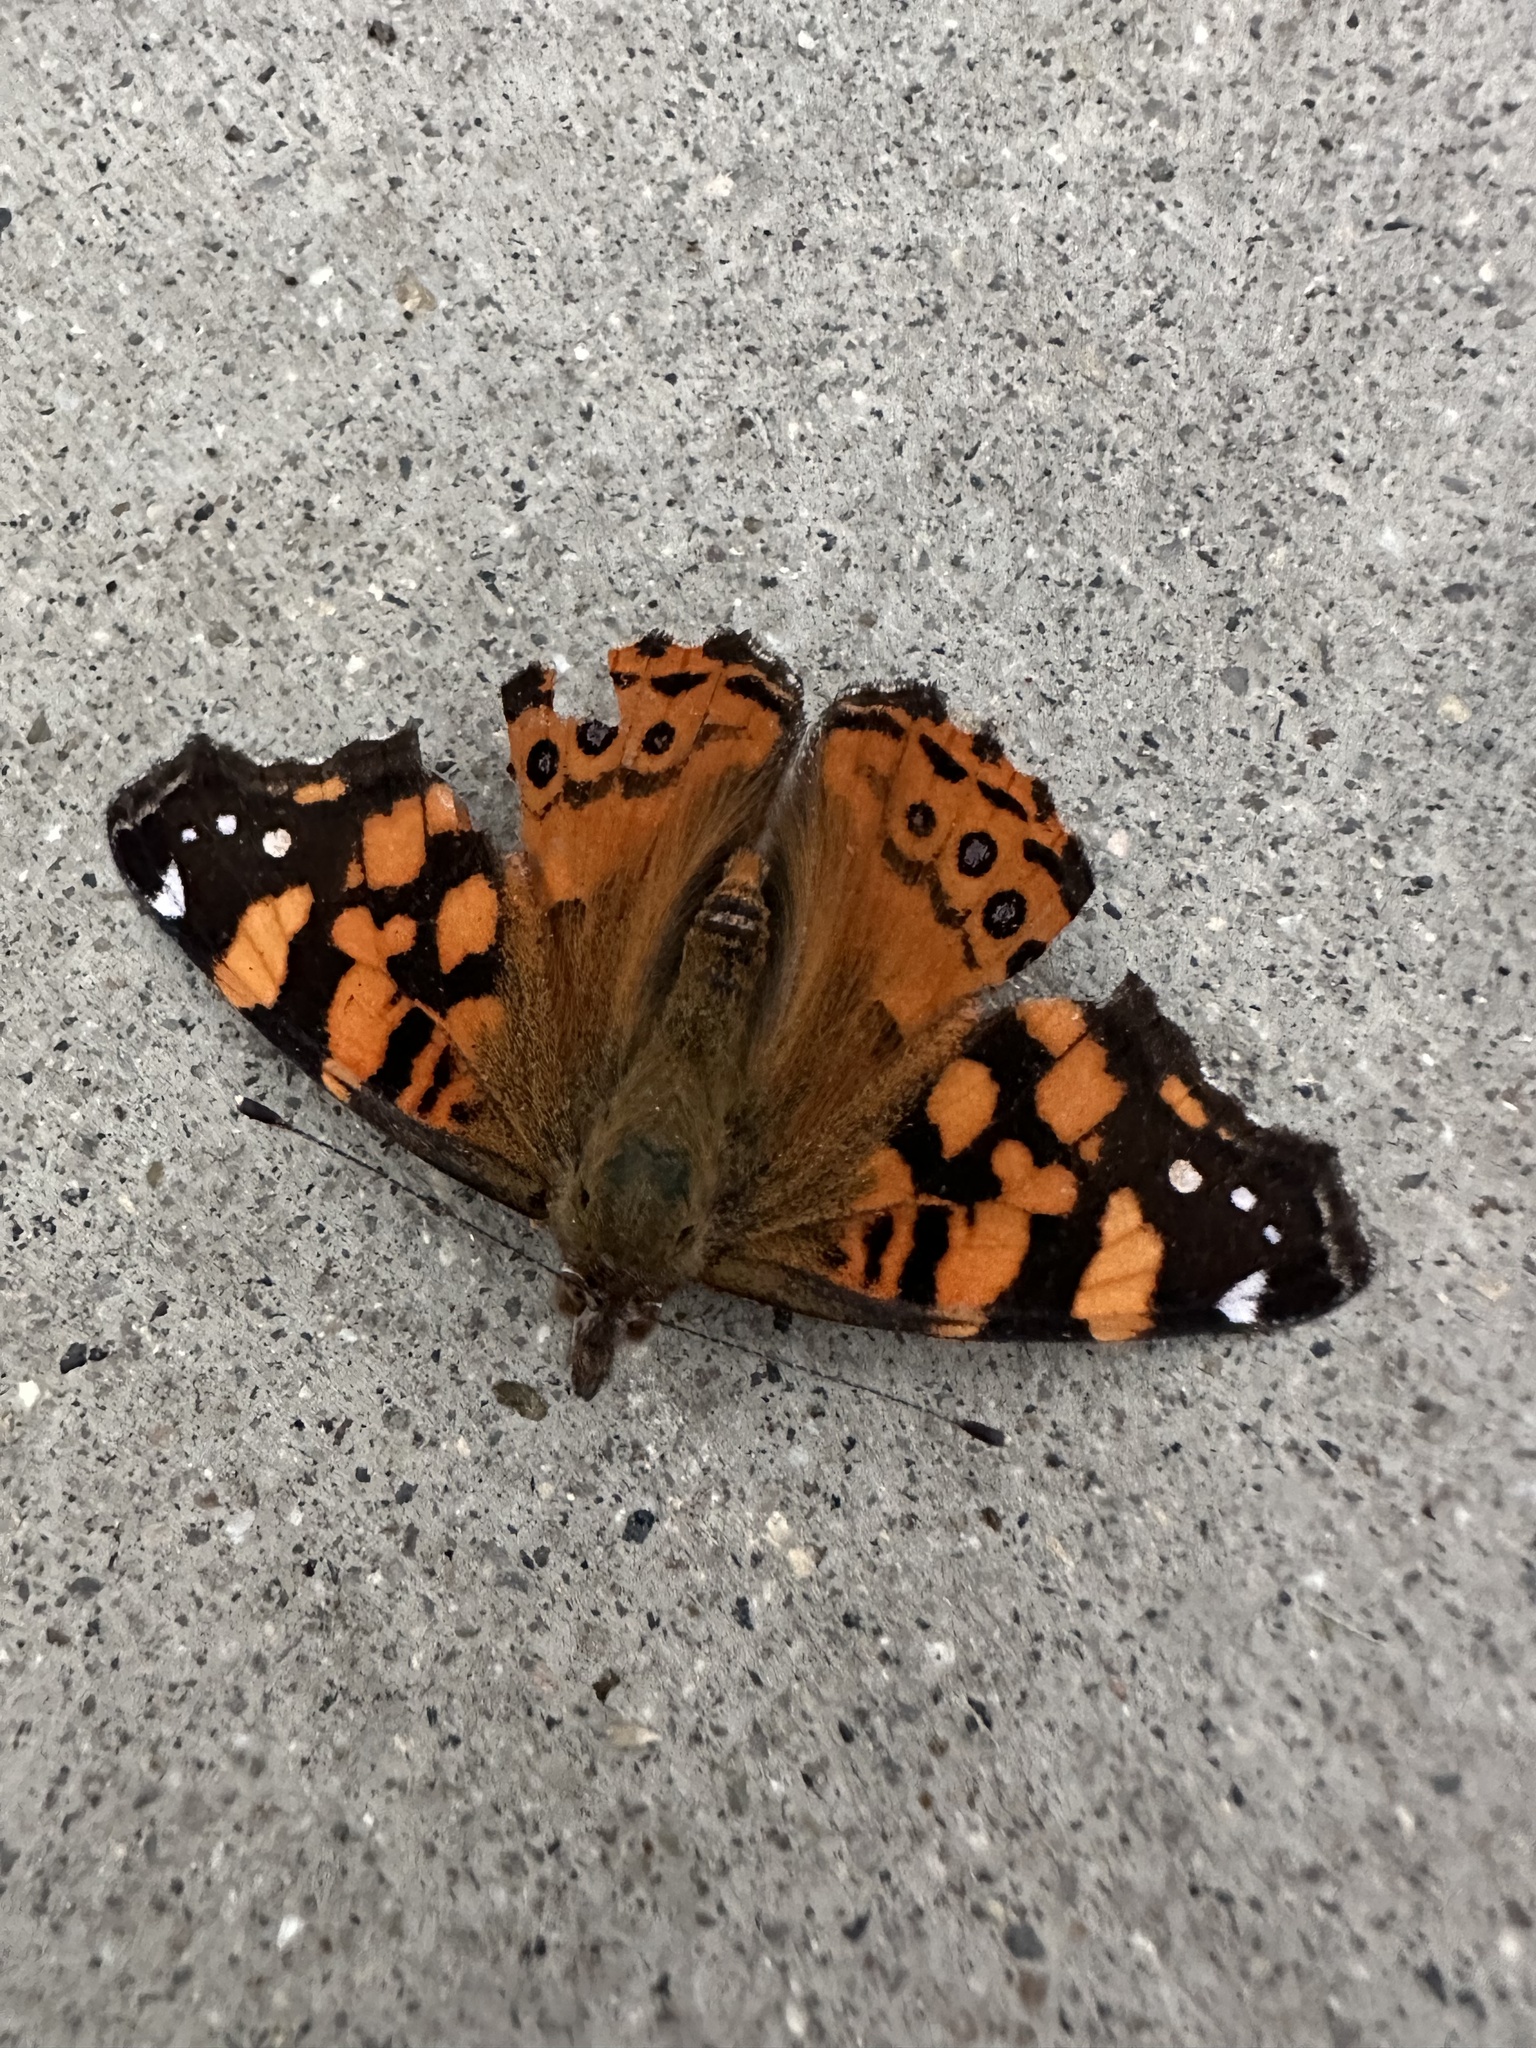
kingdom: Animalia
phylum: Arthropoda
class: Insecta
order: Lepidoptera
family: Nymphalidae
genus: Vanessa
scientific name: Vanessa annabella
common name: West coast lady
